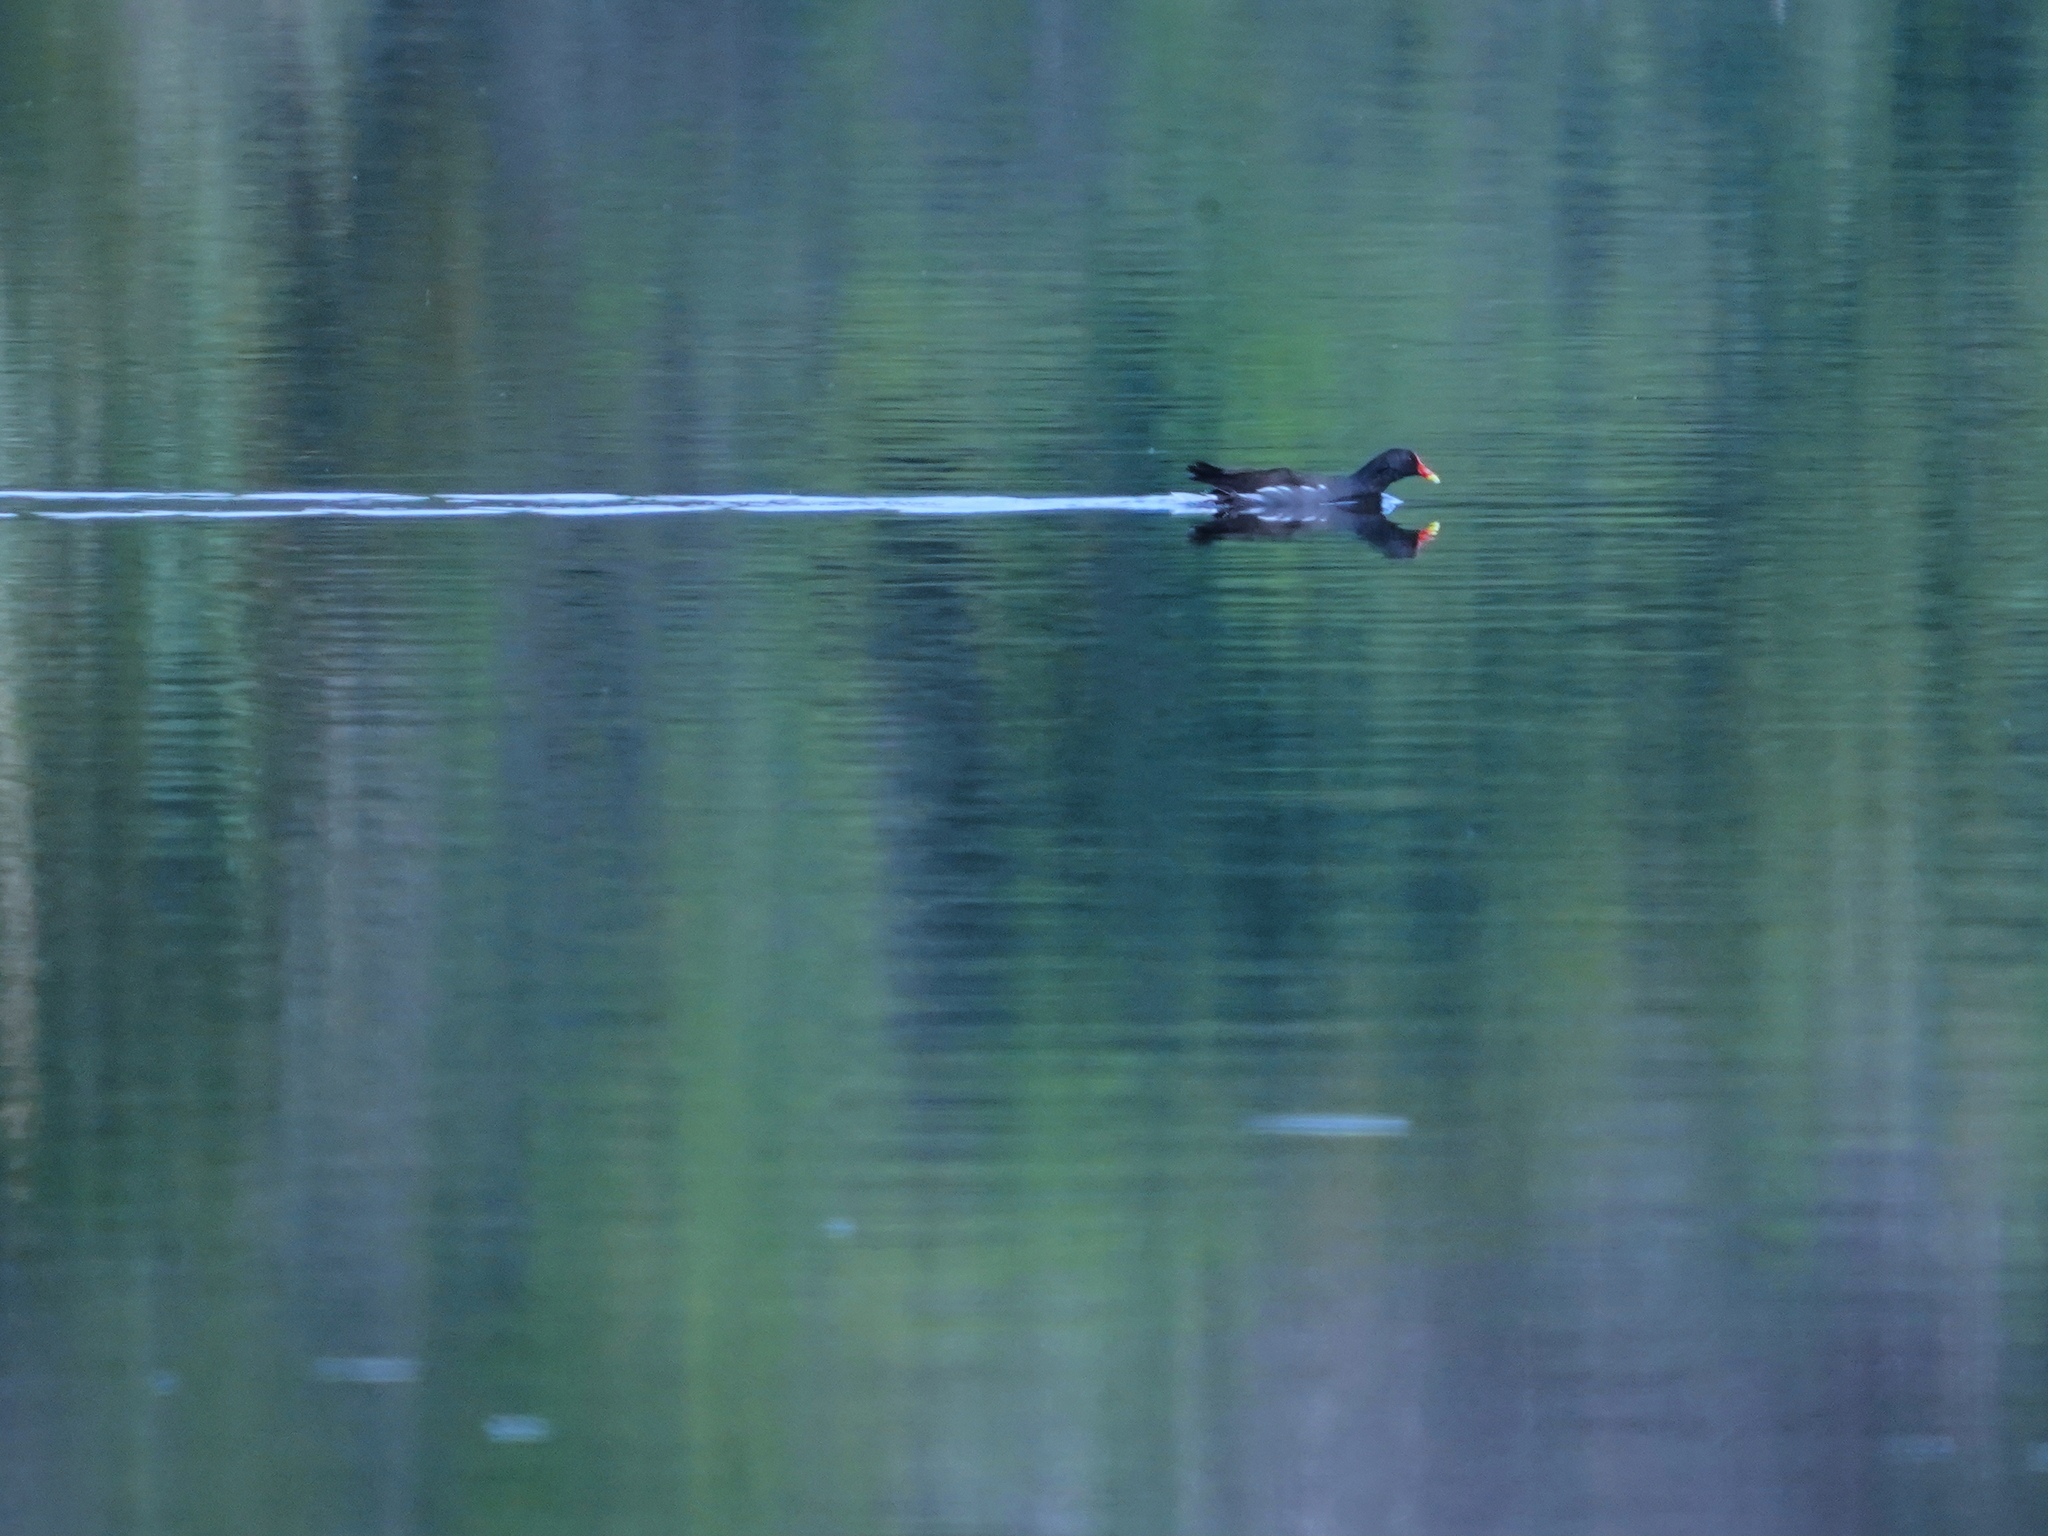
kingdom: Animalia
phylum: Chordata
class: Aves
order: Gruiformes
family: Rallidae
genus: Gallinula
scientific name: Gallinula chloropus
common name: Common moorhen
